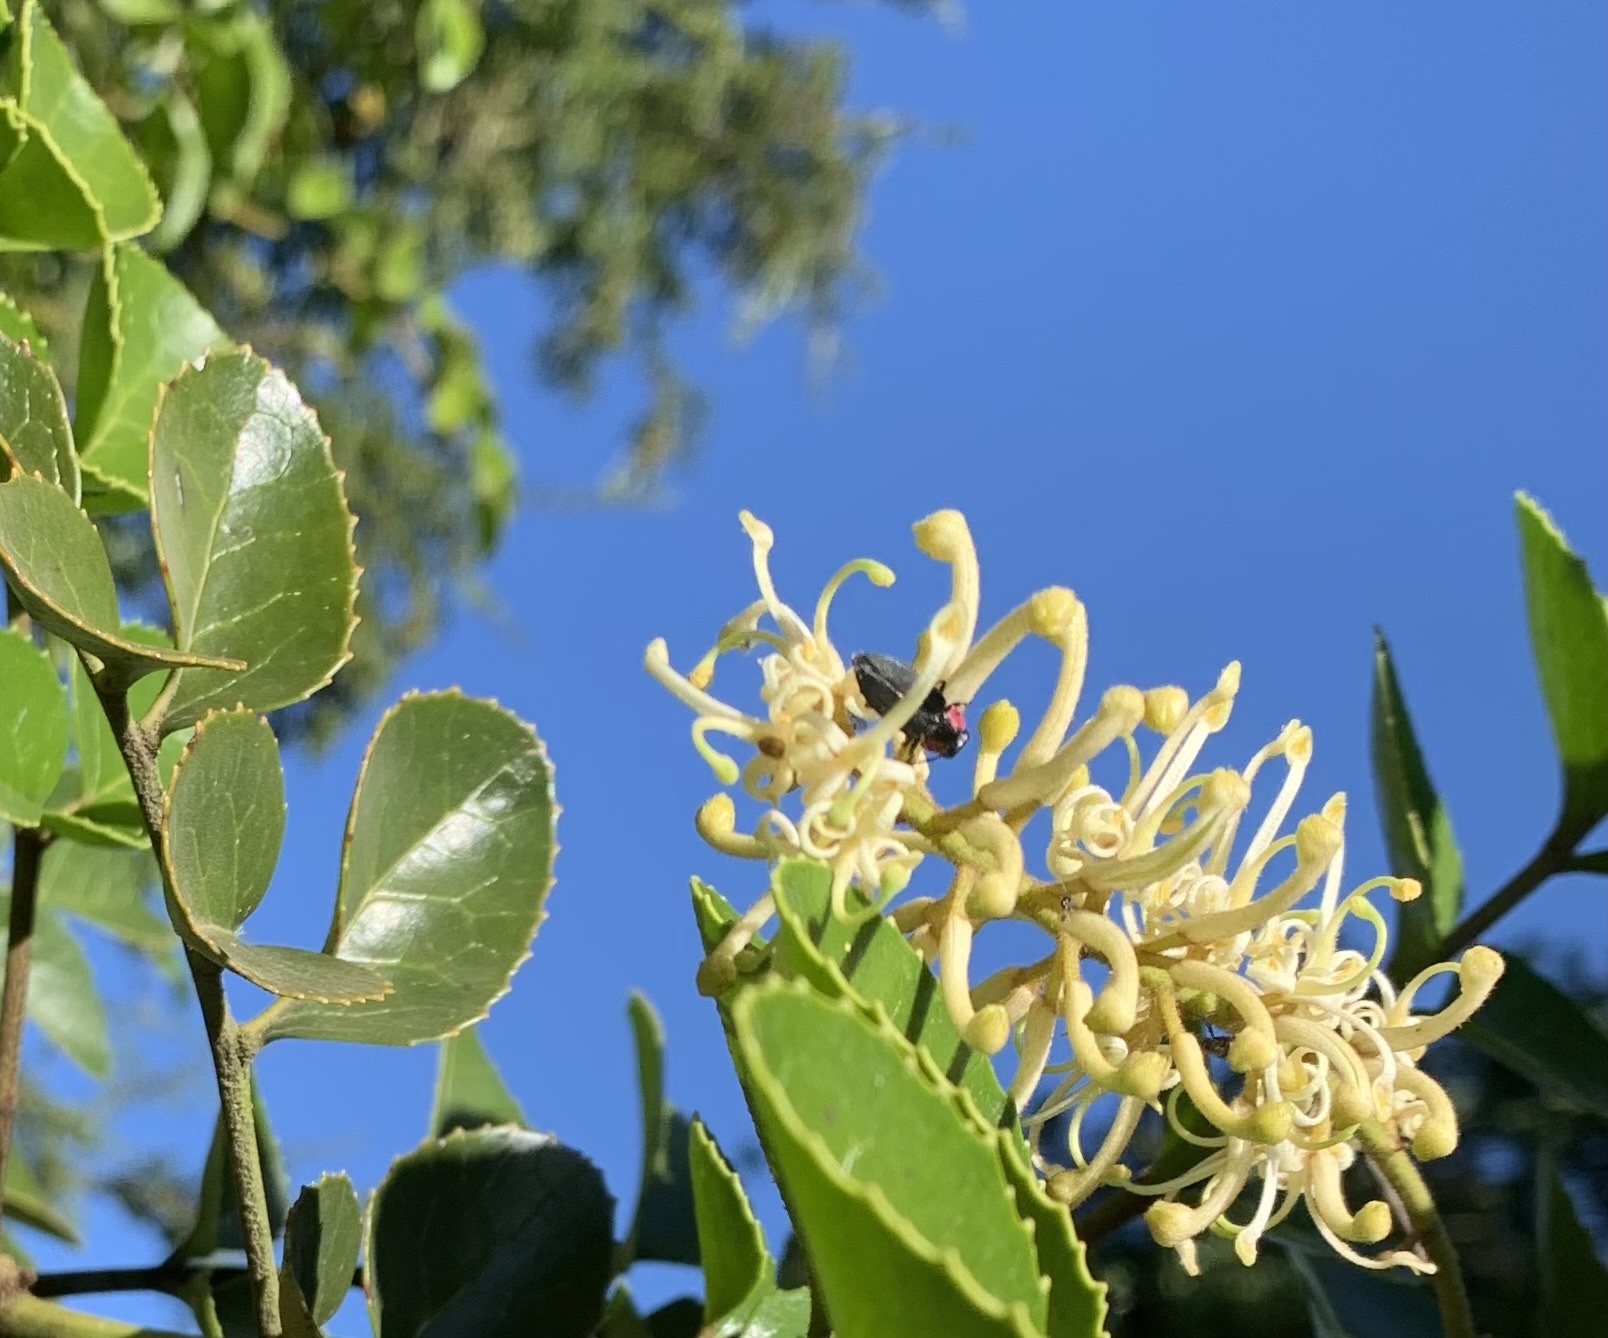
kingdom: Animalia
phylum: Arthropoda
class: Insecta
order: Coleoptera
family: Buprestidae
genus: Romanophora
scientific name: Romanophora verecunda
